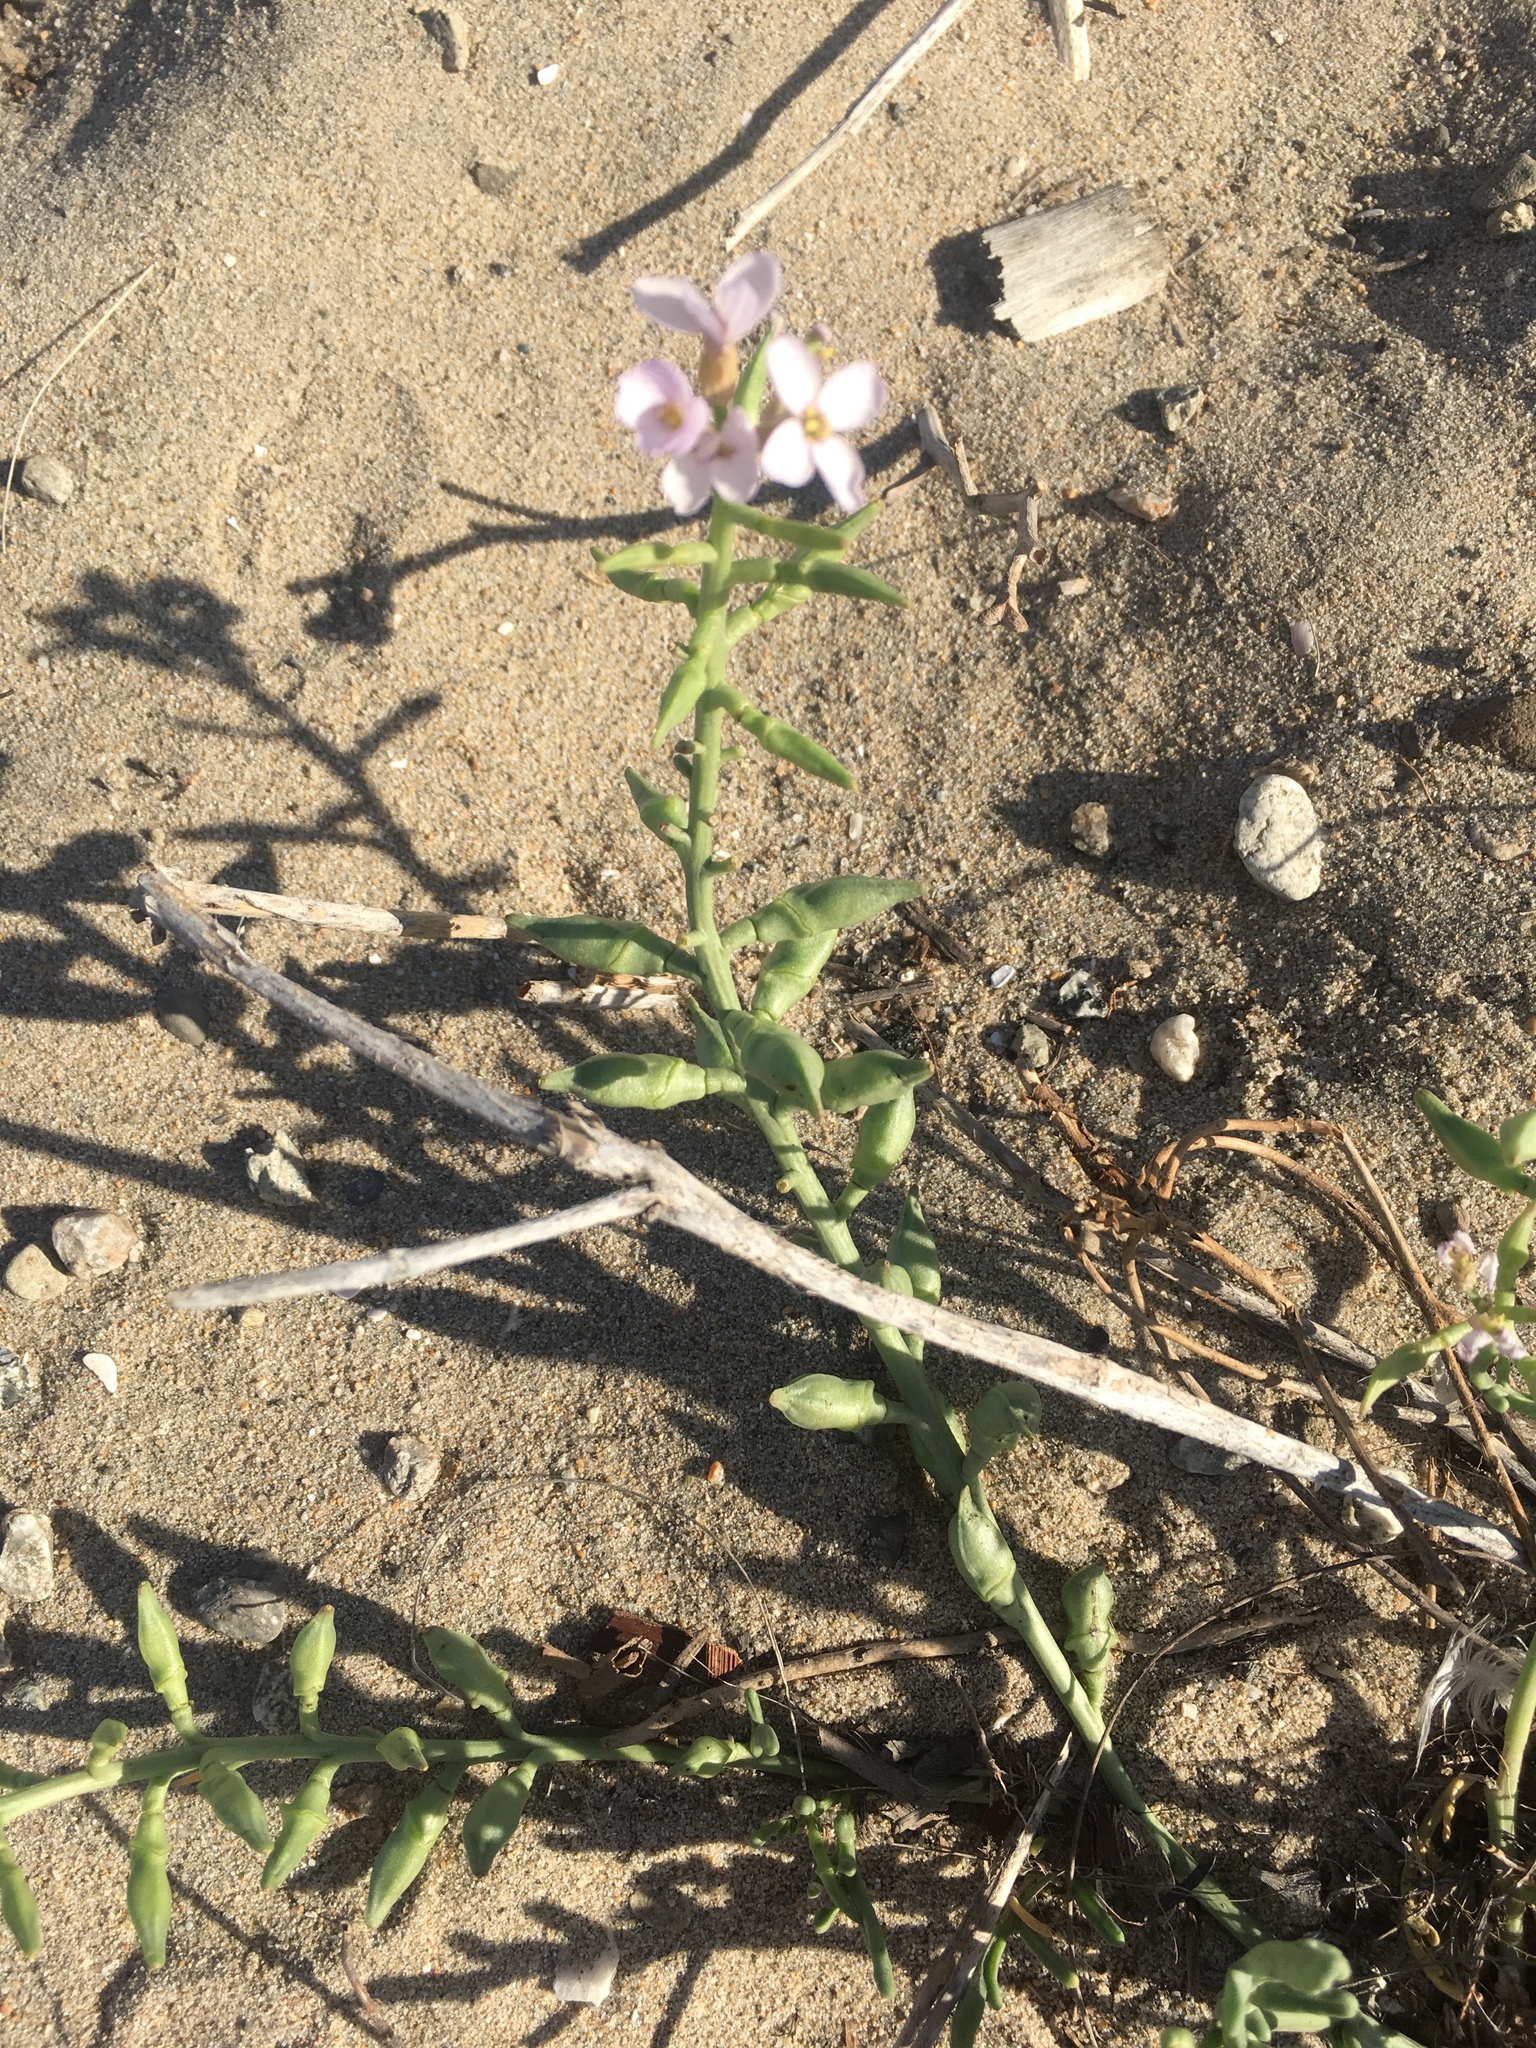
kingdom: Plantae
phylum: Tracheophyta
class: Magnoliopsida
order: Brassicales
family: Brassicaceae
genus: Cakile
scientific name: Cakile maritima
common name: Sea rocket
